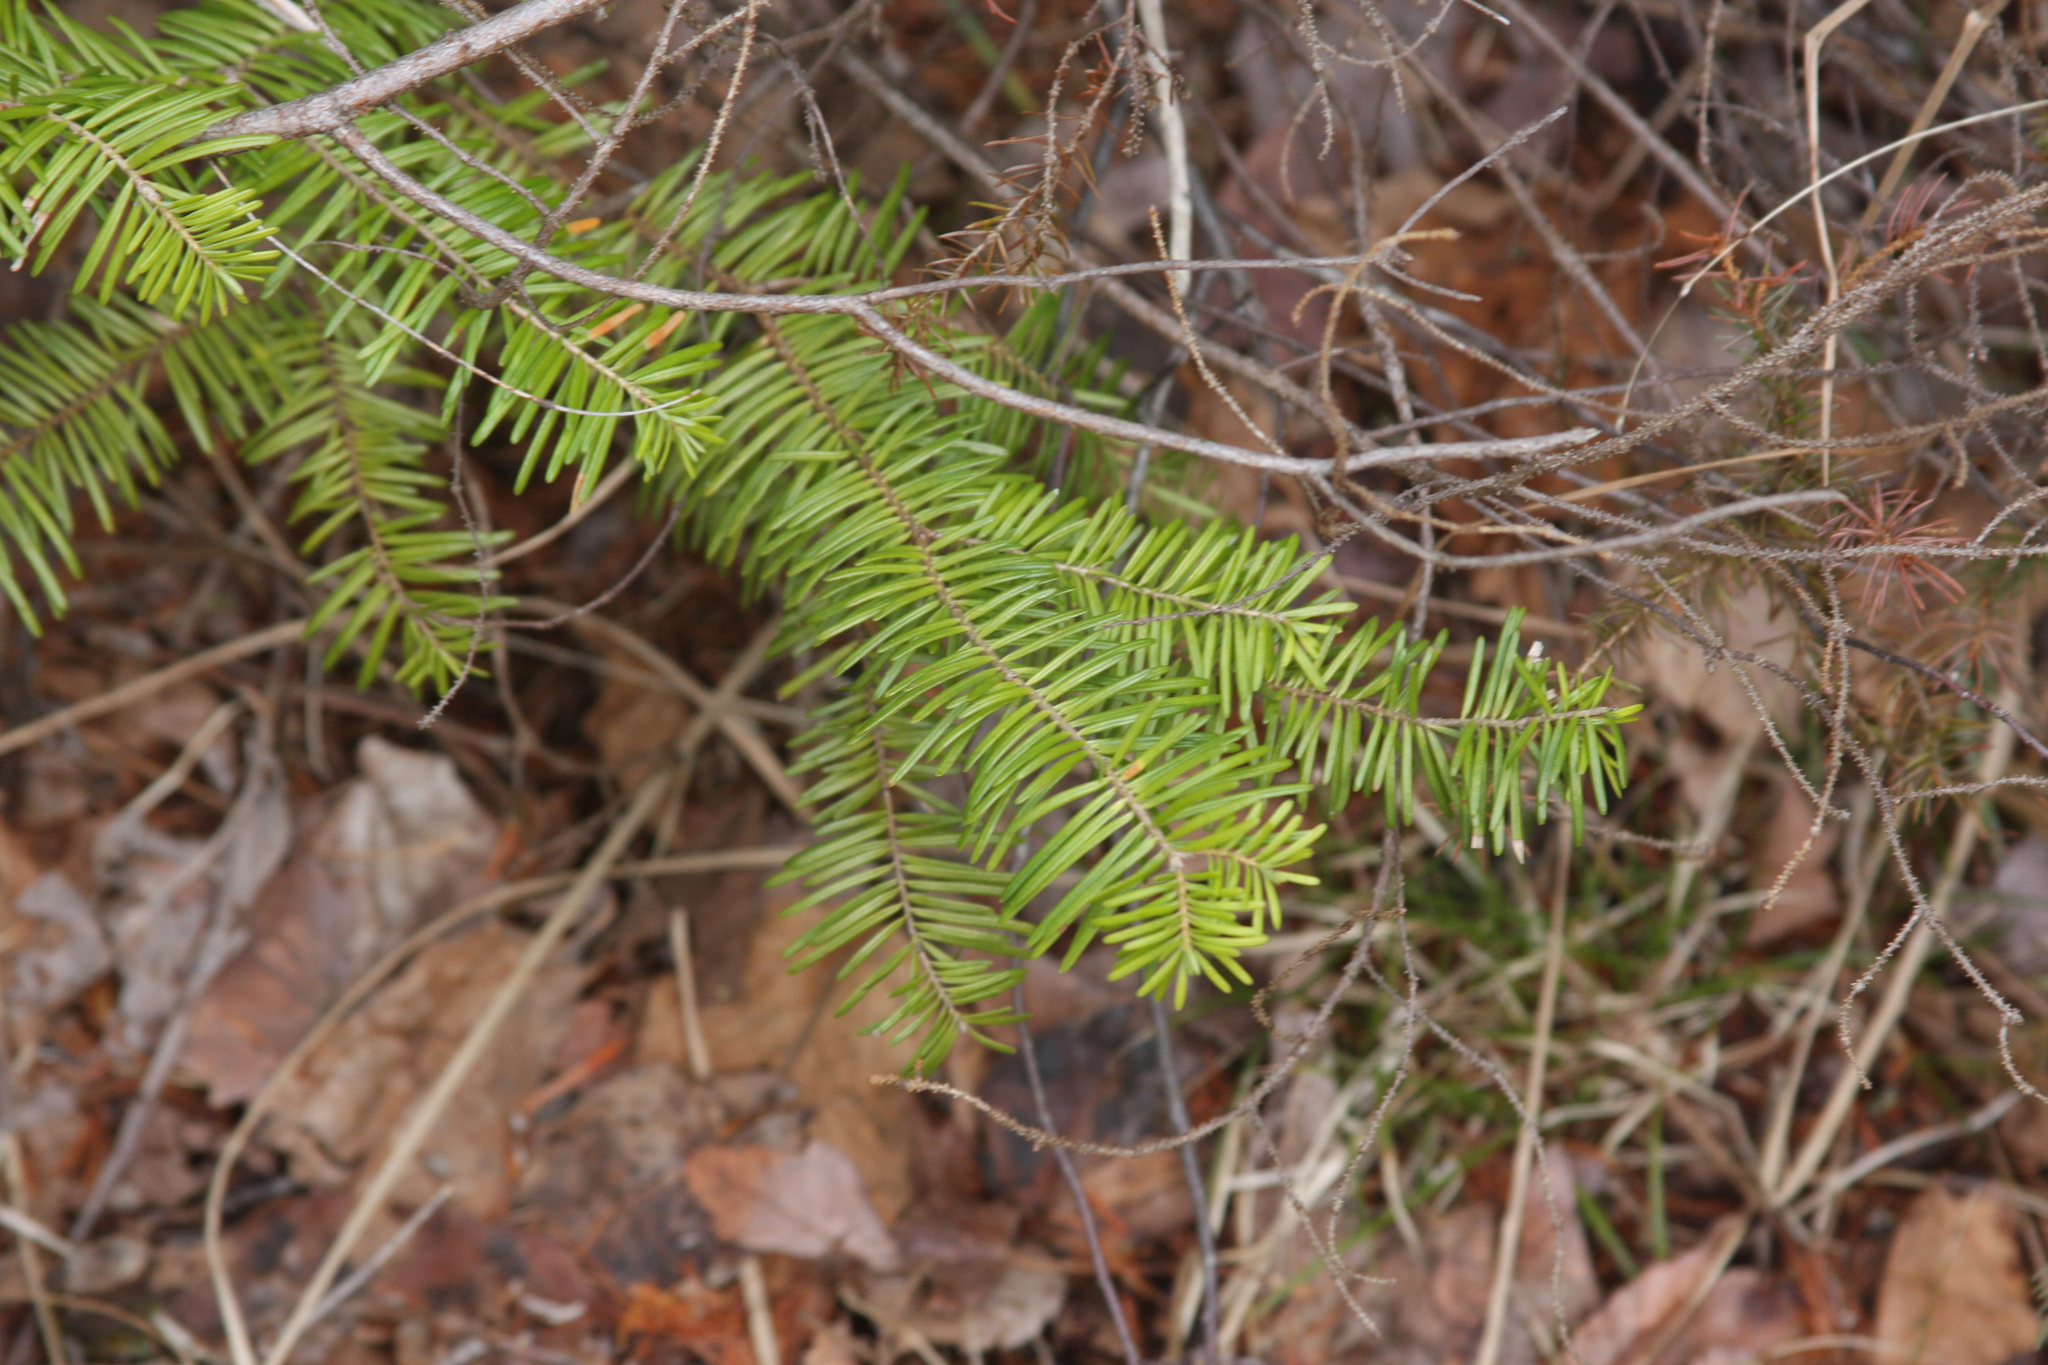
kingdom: Plantae
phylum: Tracheophyta
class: Pinopsida
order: Pinales
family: Pinaceae
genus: Abies
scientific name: Abies balsamea
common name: Balsam fir
